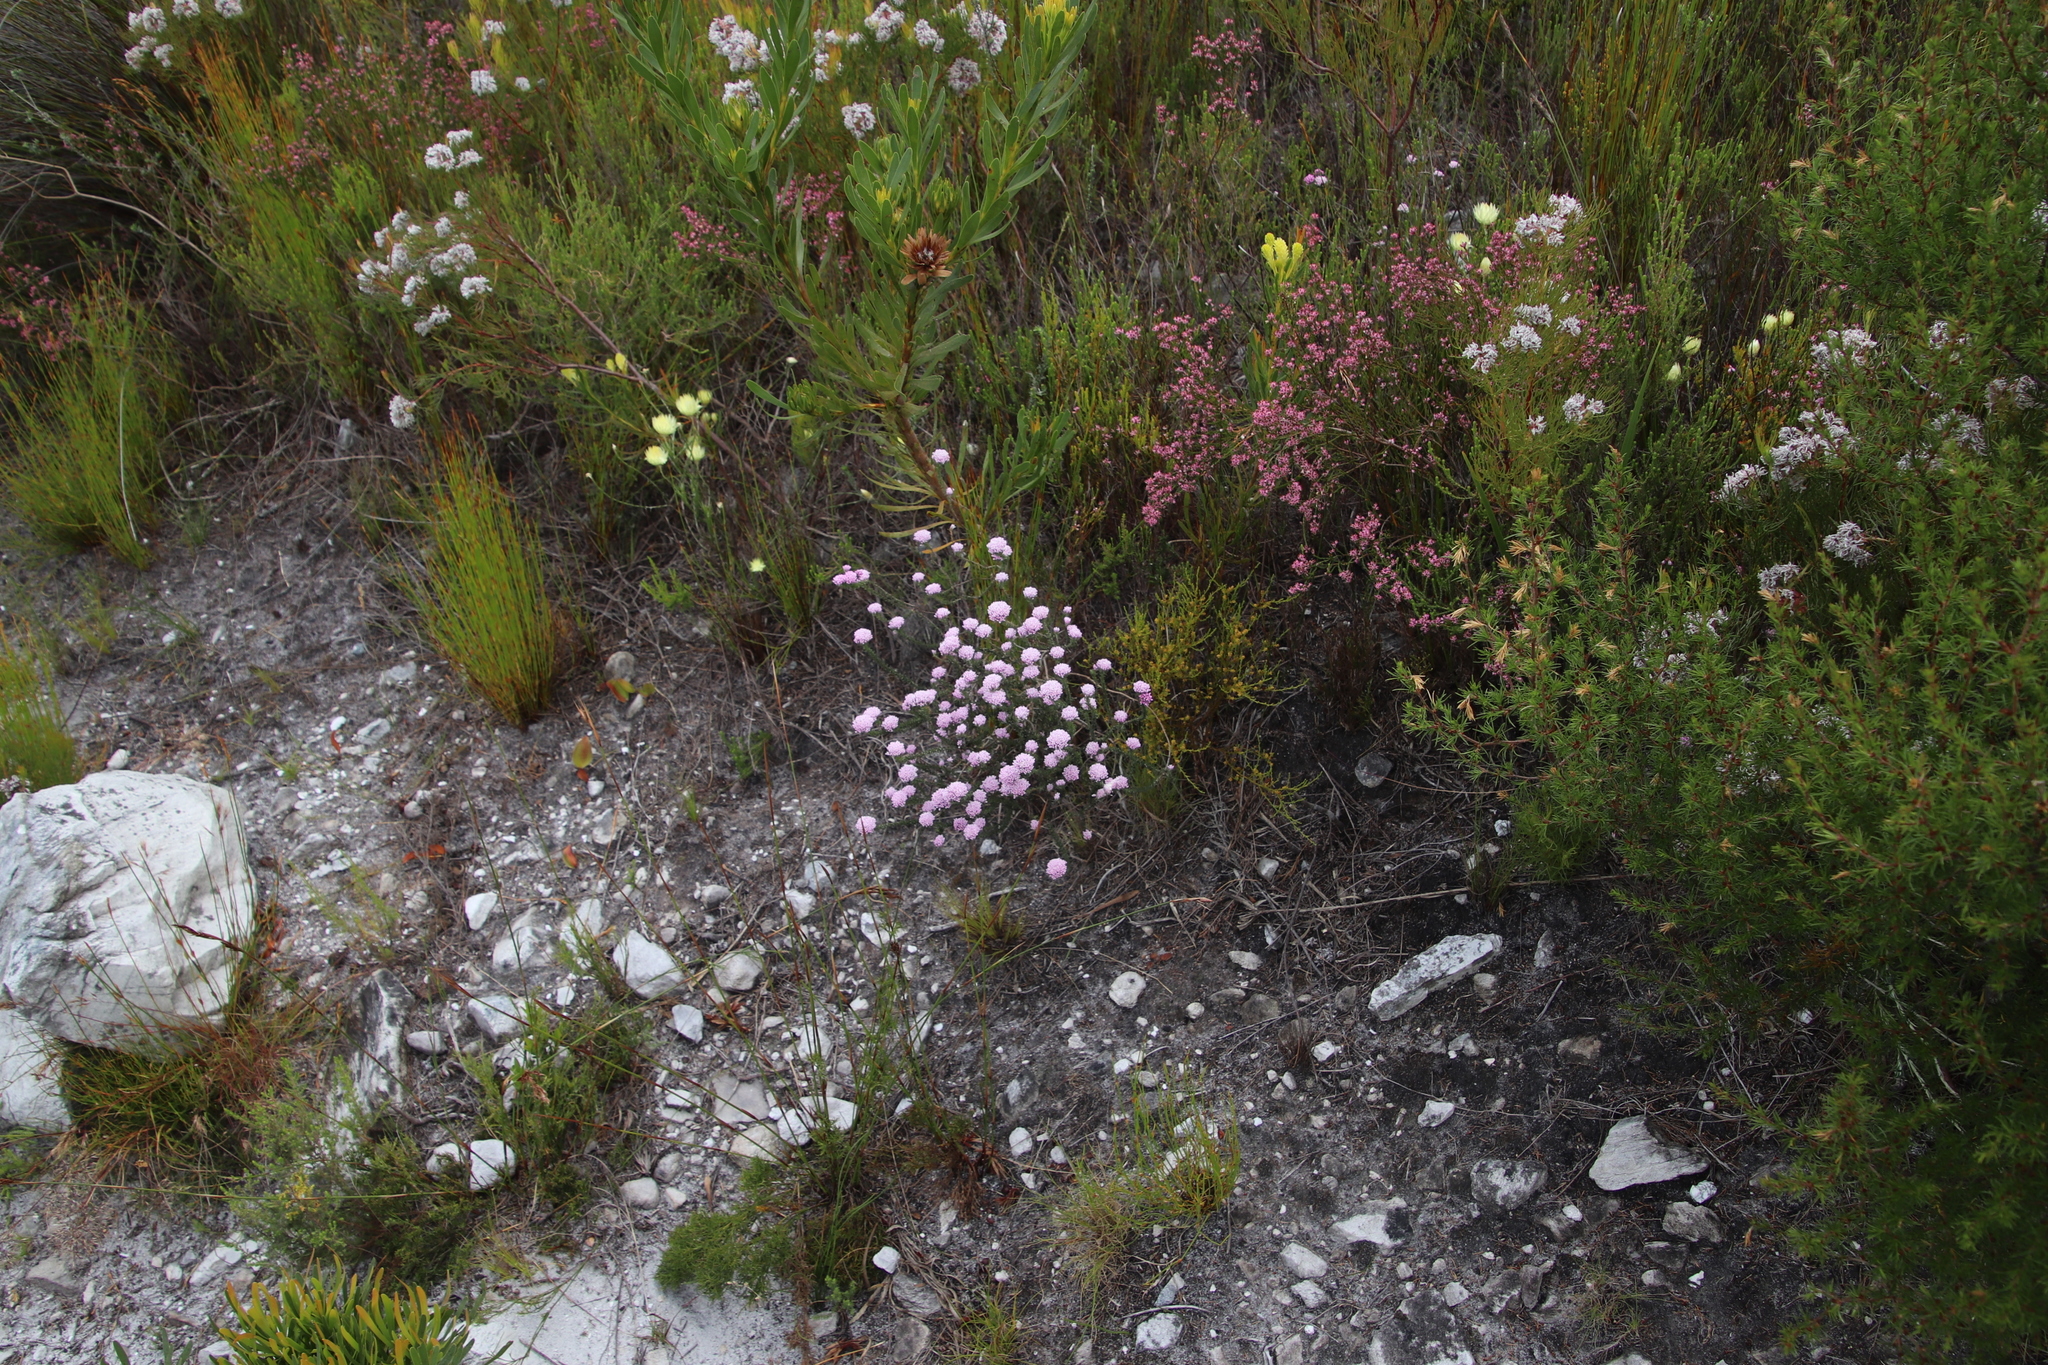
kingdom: Plantae
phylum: Tracheophyta
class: Magnoliopsida
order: Asterales
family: Asteraceae
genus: Metalasia
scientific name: Metalasia erubescens
